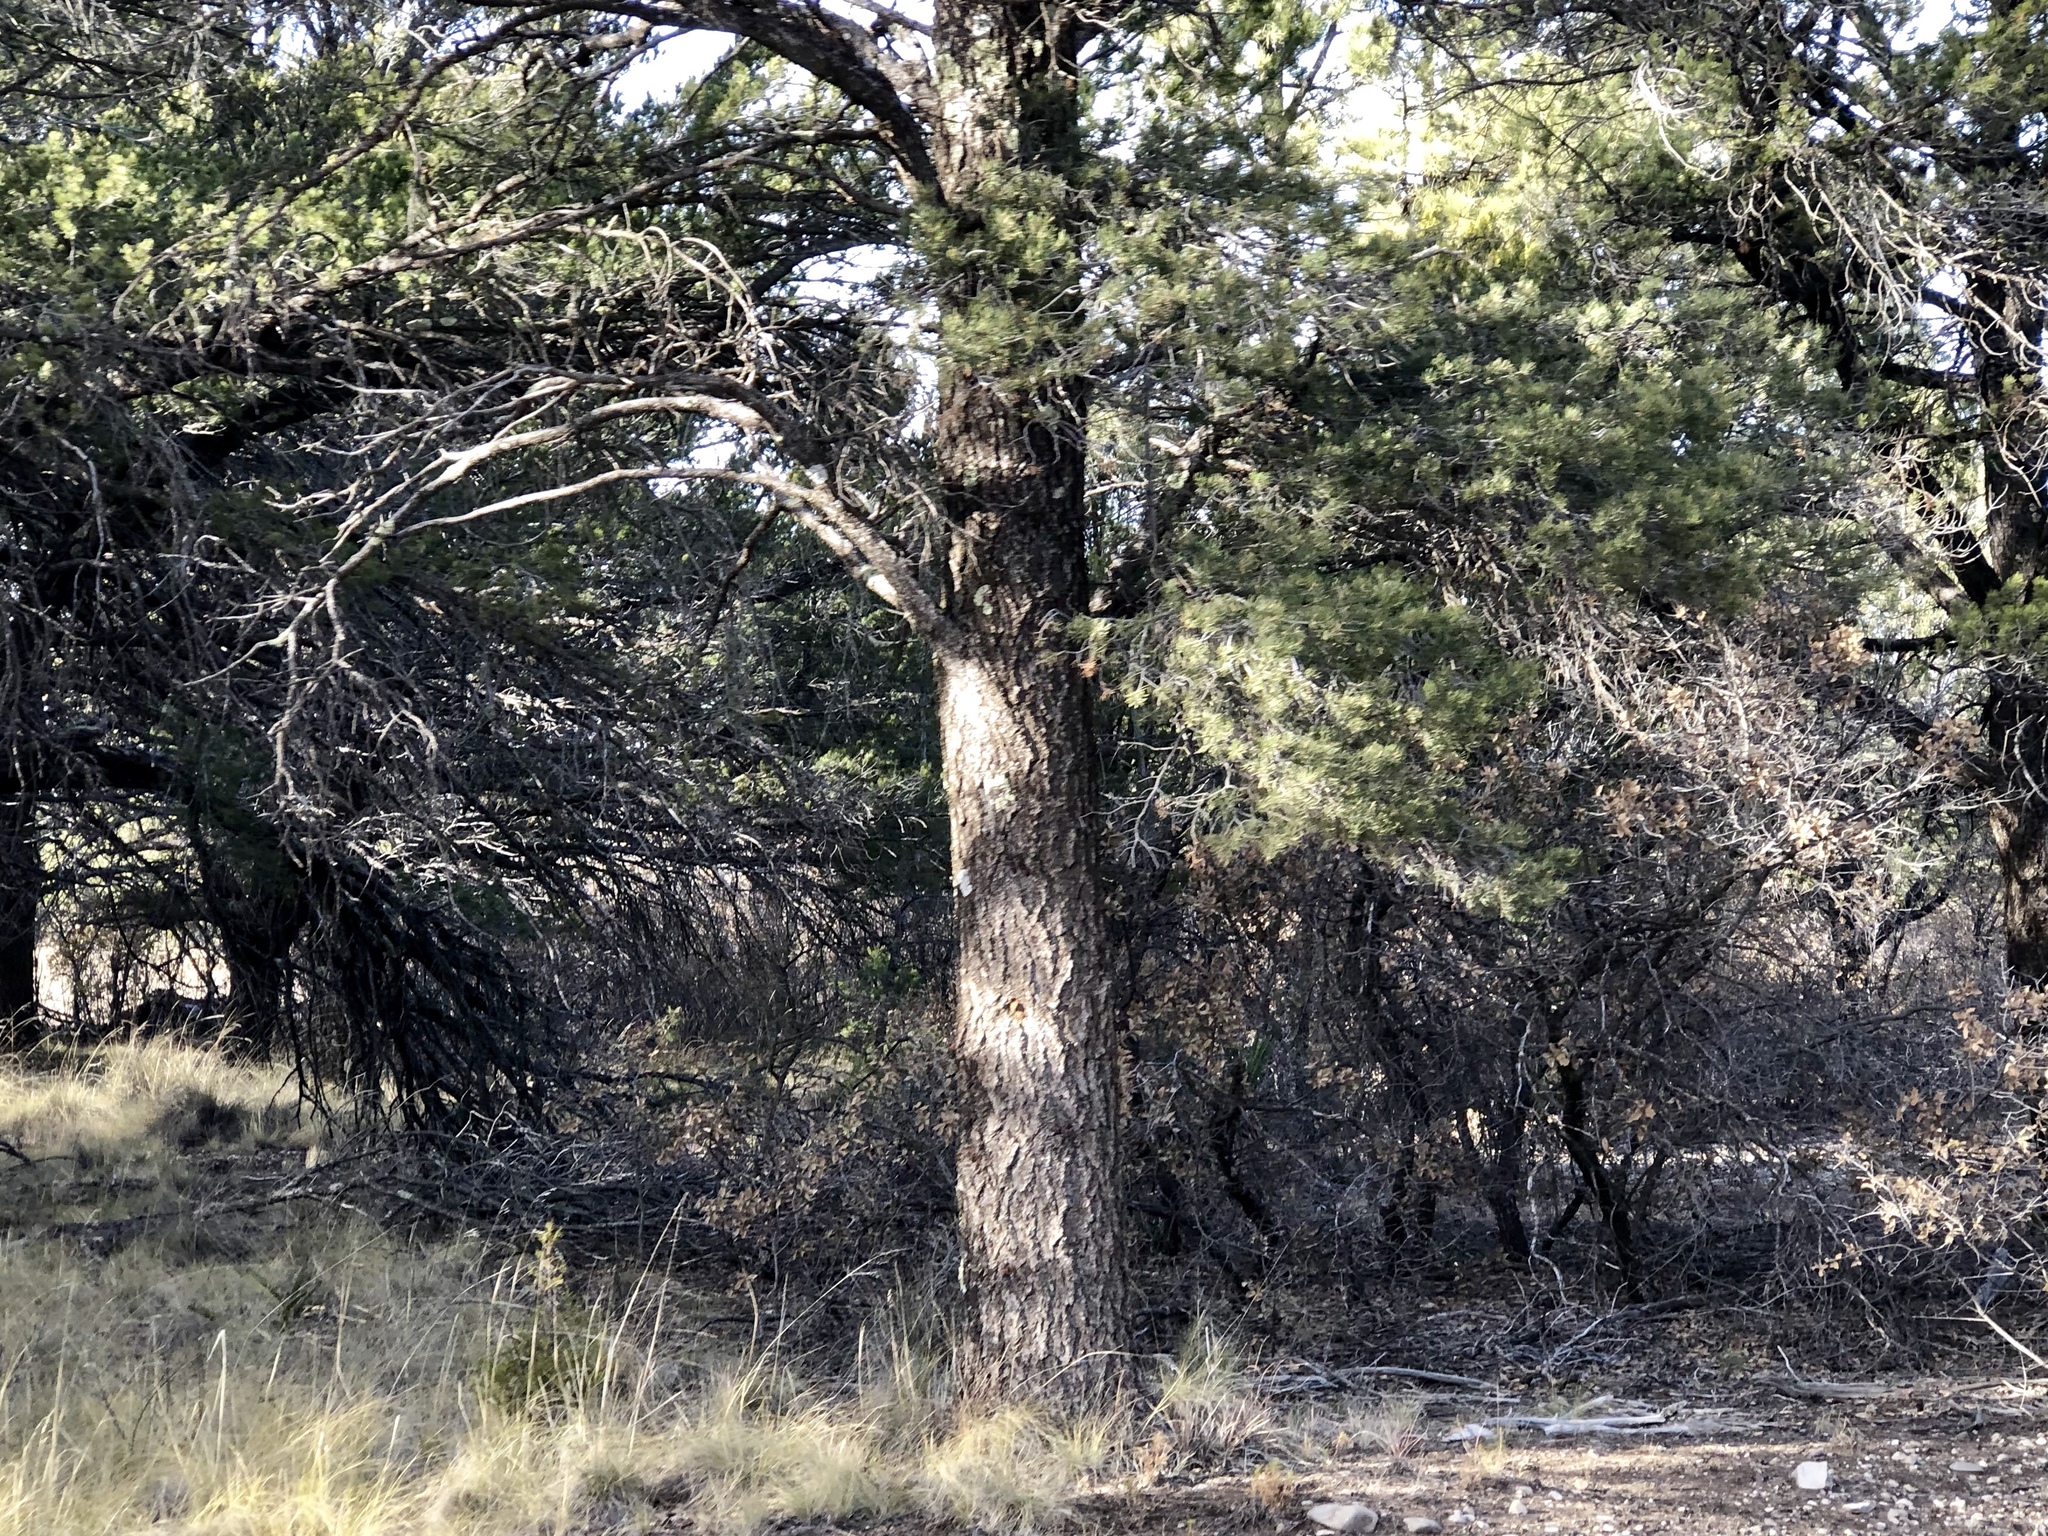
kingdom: Plantae
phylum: Tracheophyta
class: Pinopsida
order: Pinales
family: Pinaceae
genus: Pinus
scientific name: Pinus edulis
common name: Colorado pinyon
